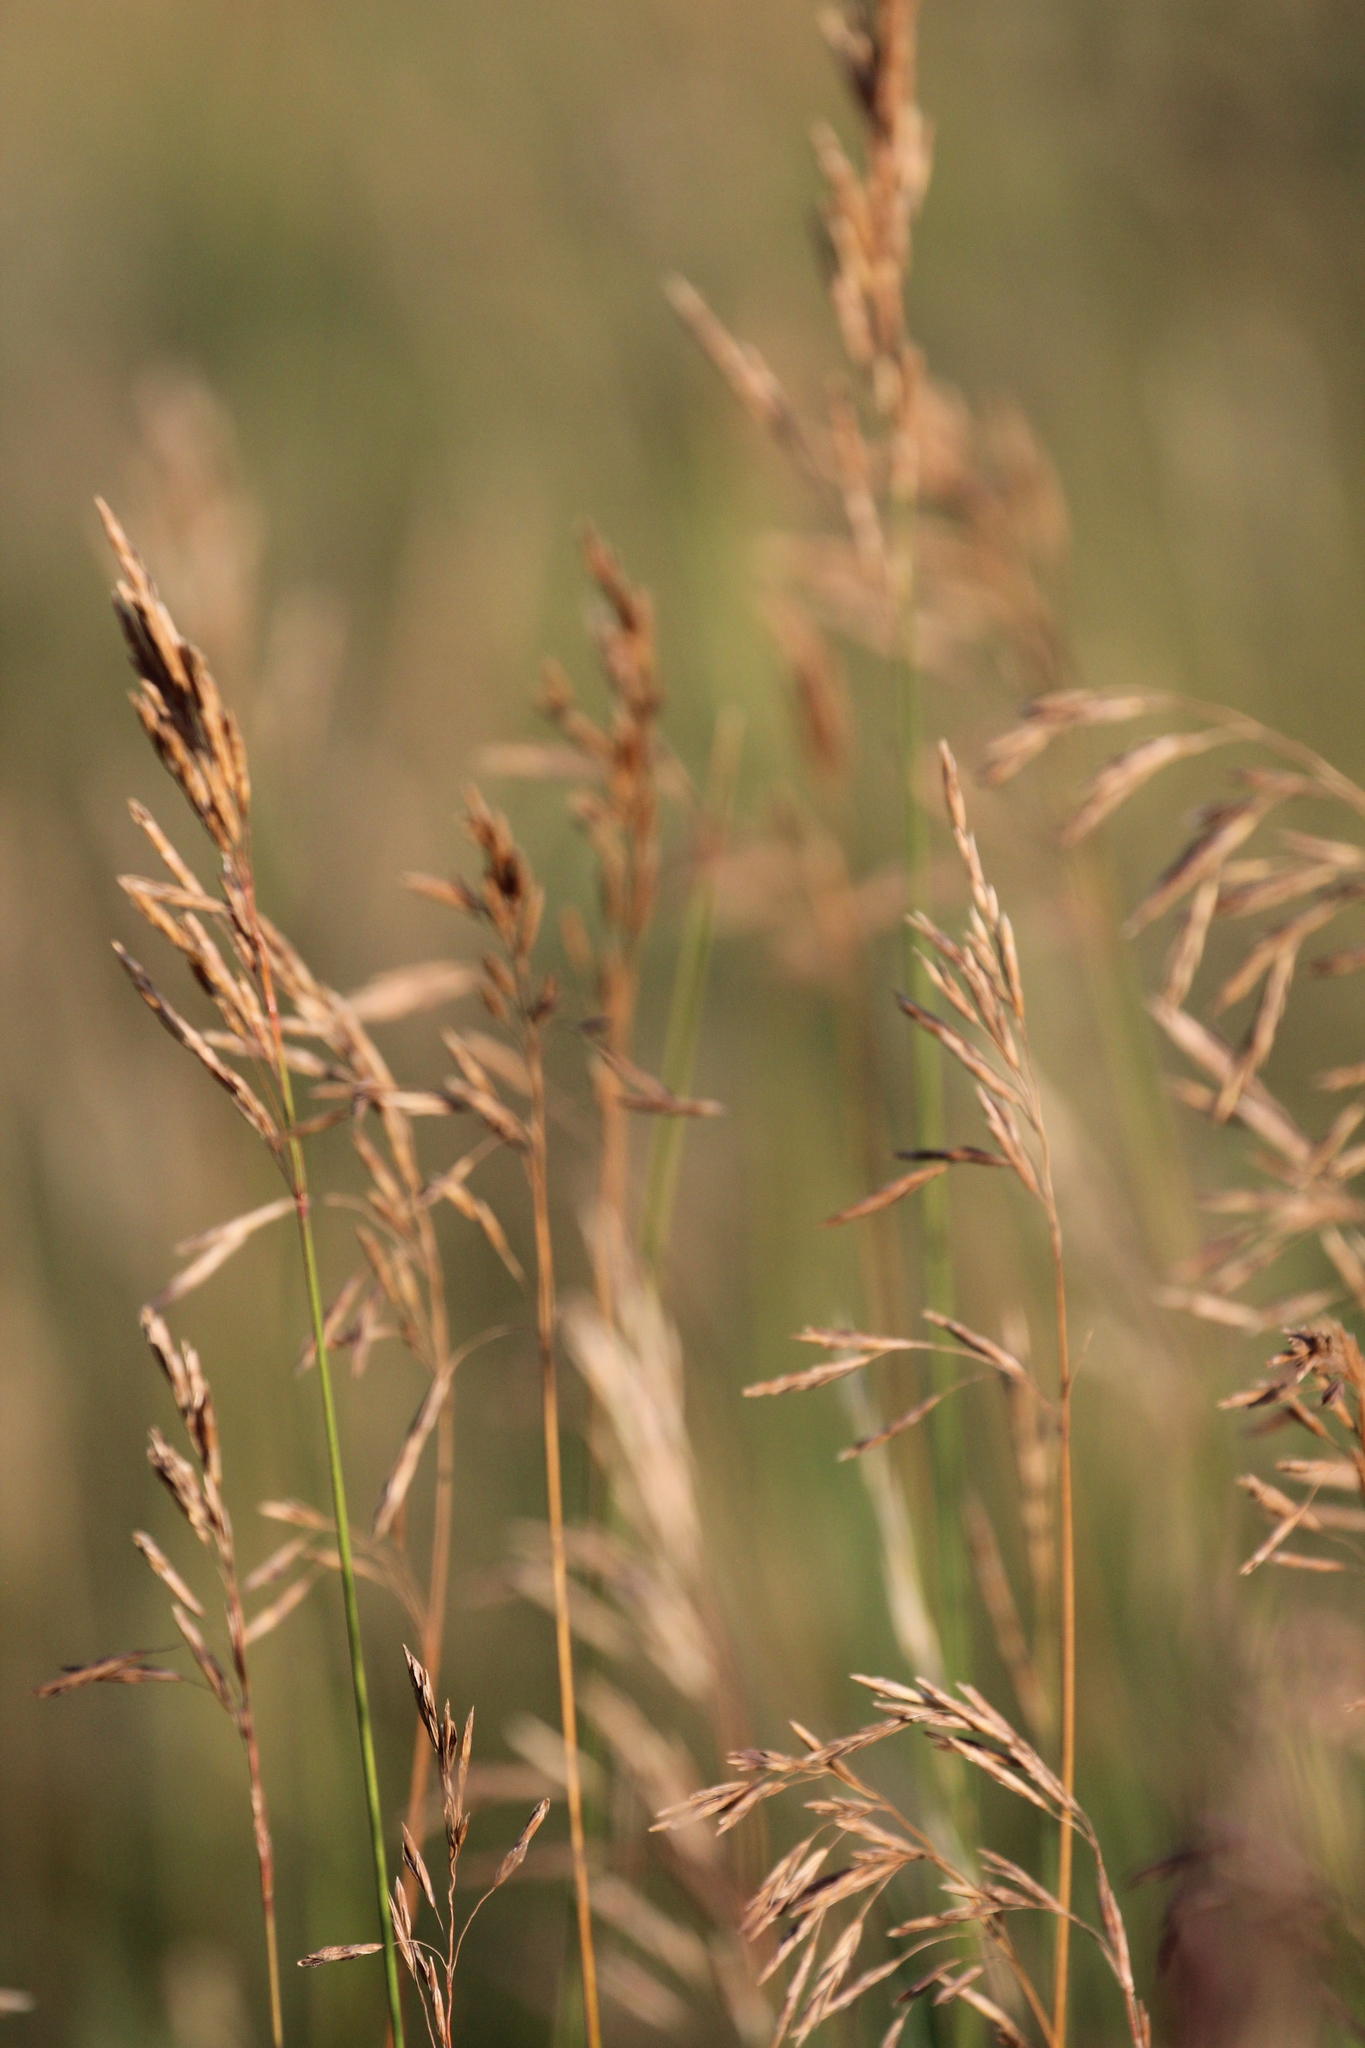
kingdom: Plantae
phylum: Tracheophyta
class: Liliopsida
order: Poales
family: Poaceae
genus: Bromus
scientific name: Bromus inermis
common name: Smooth brome
